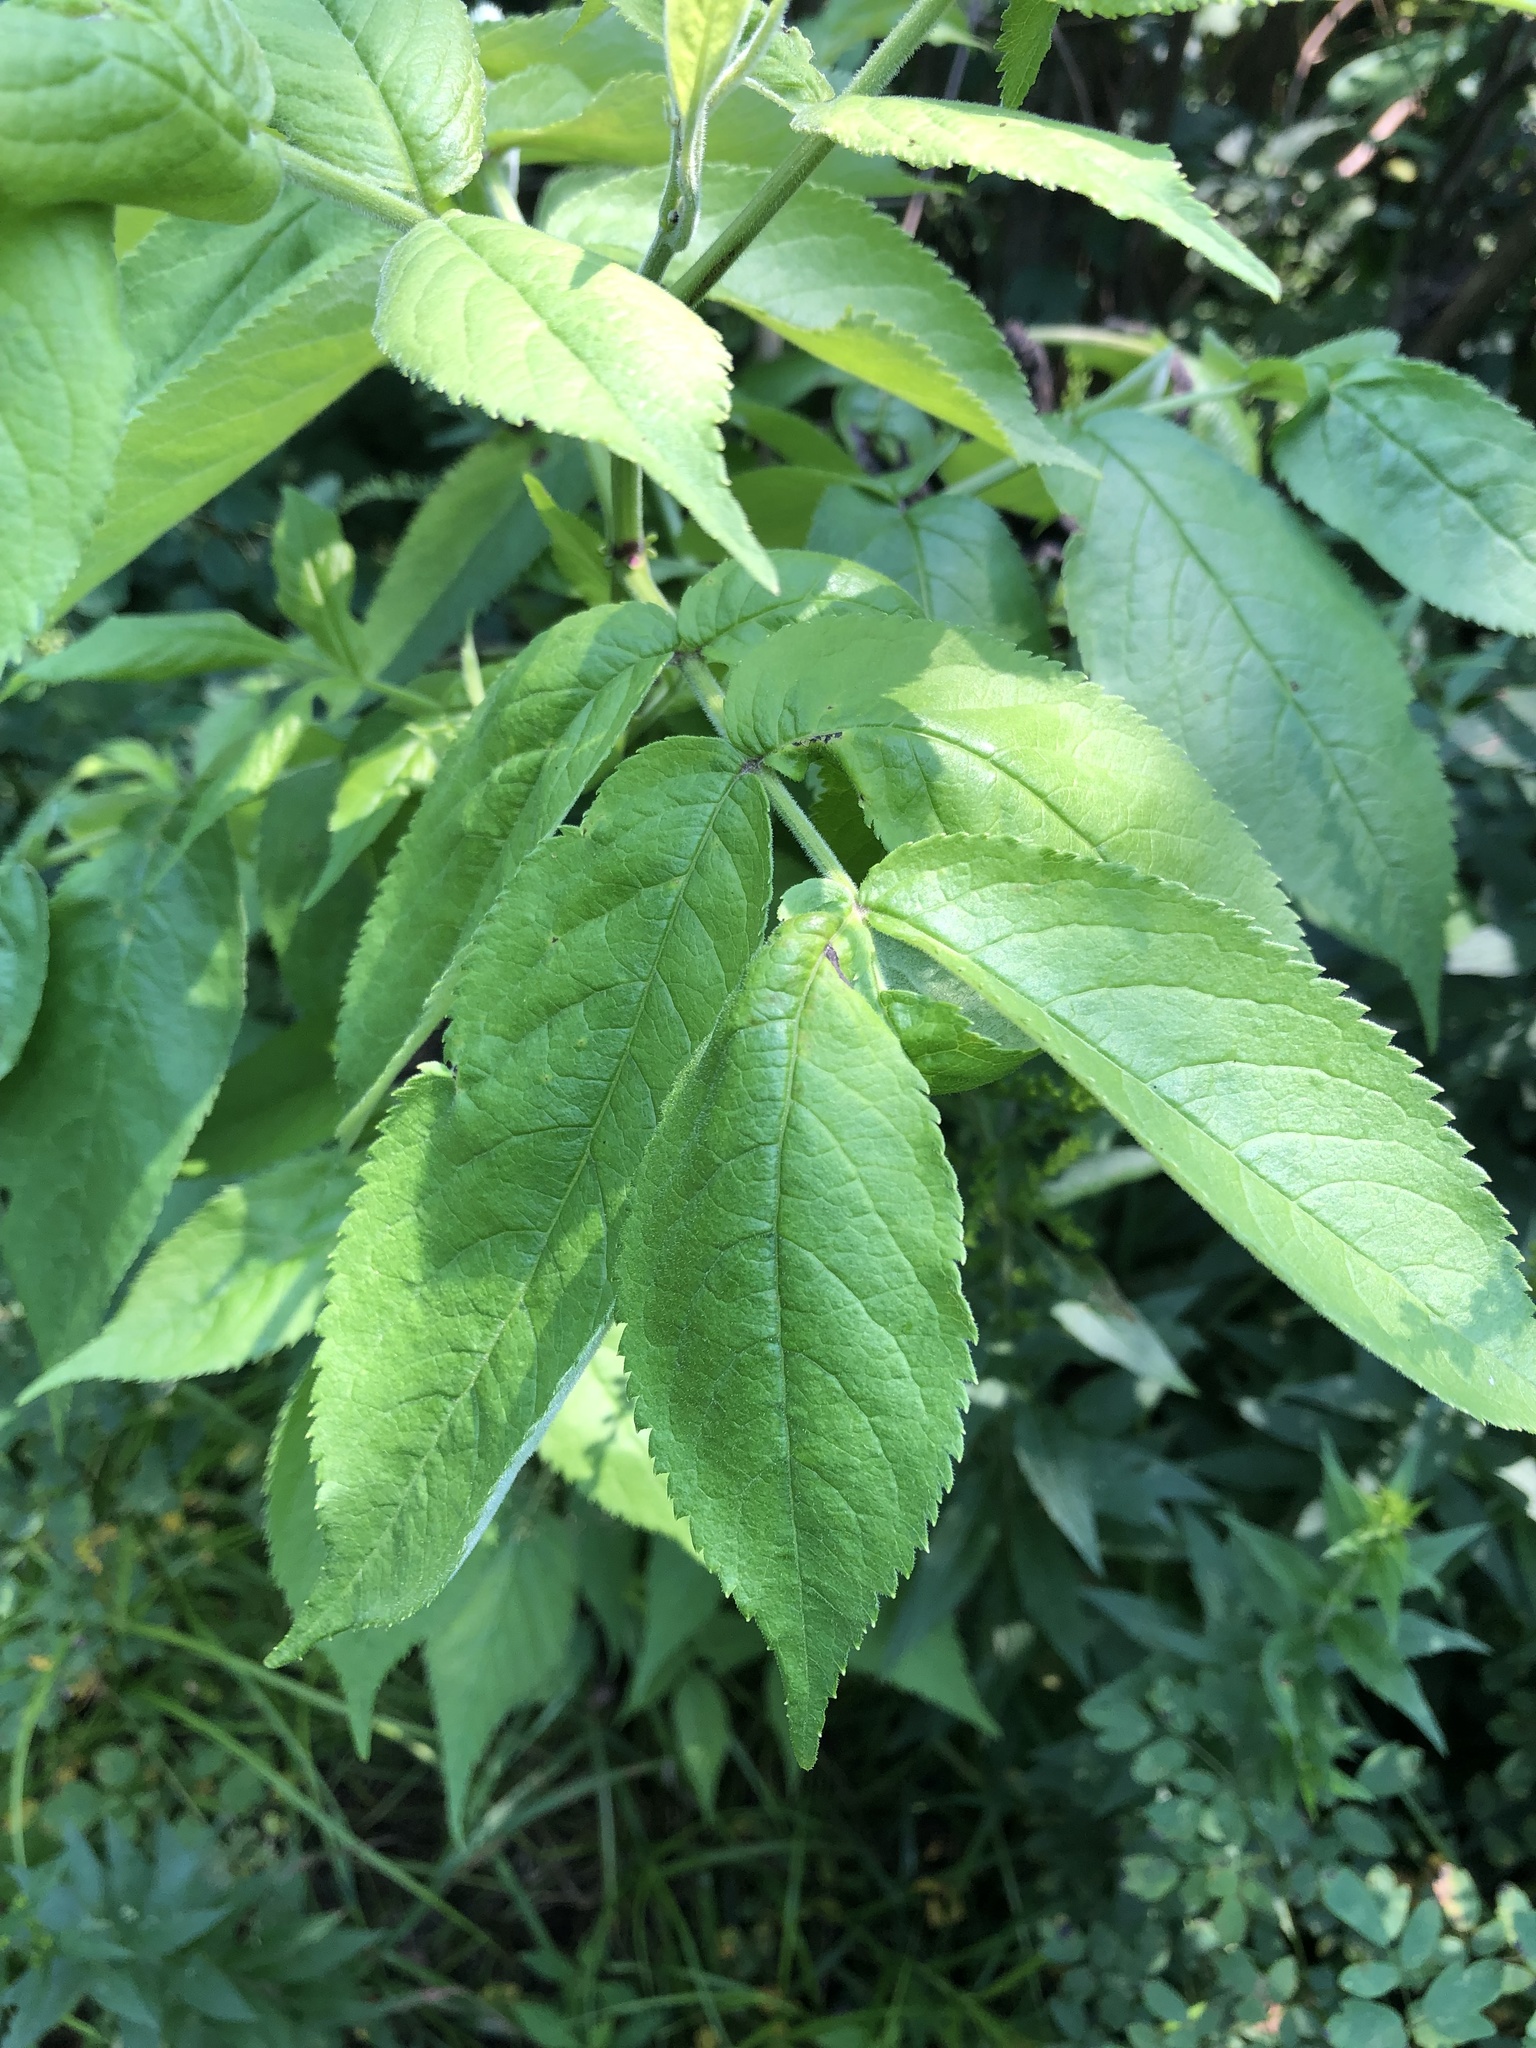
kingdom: Plantae
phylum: Tracheophyta
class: Magnoliopsida
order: Dipsacales
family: Viburnaceae
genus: Sambucus
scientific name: Sambucus racemosa
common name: Red-berried elder
